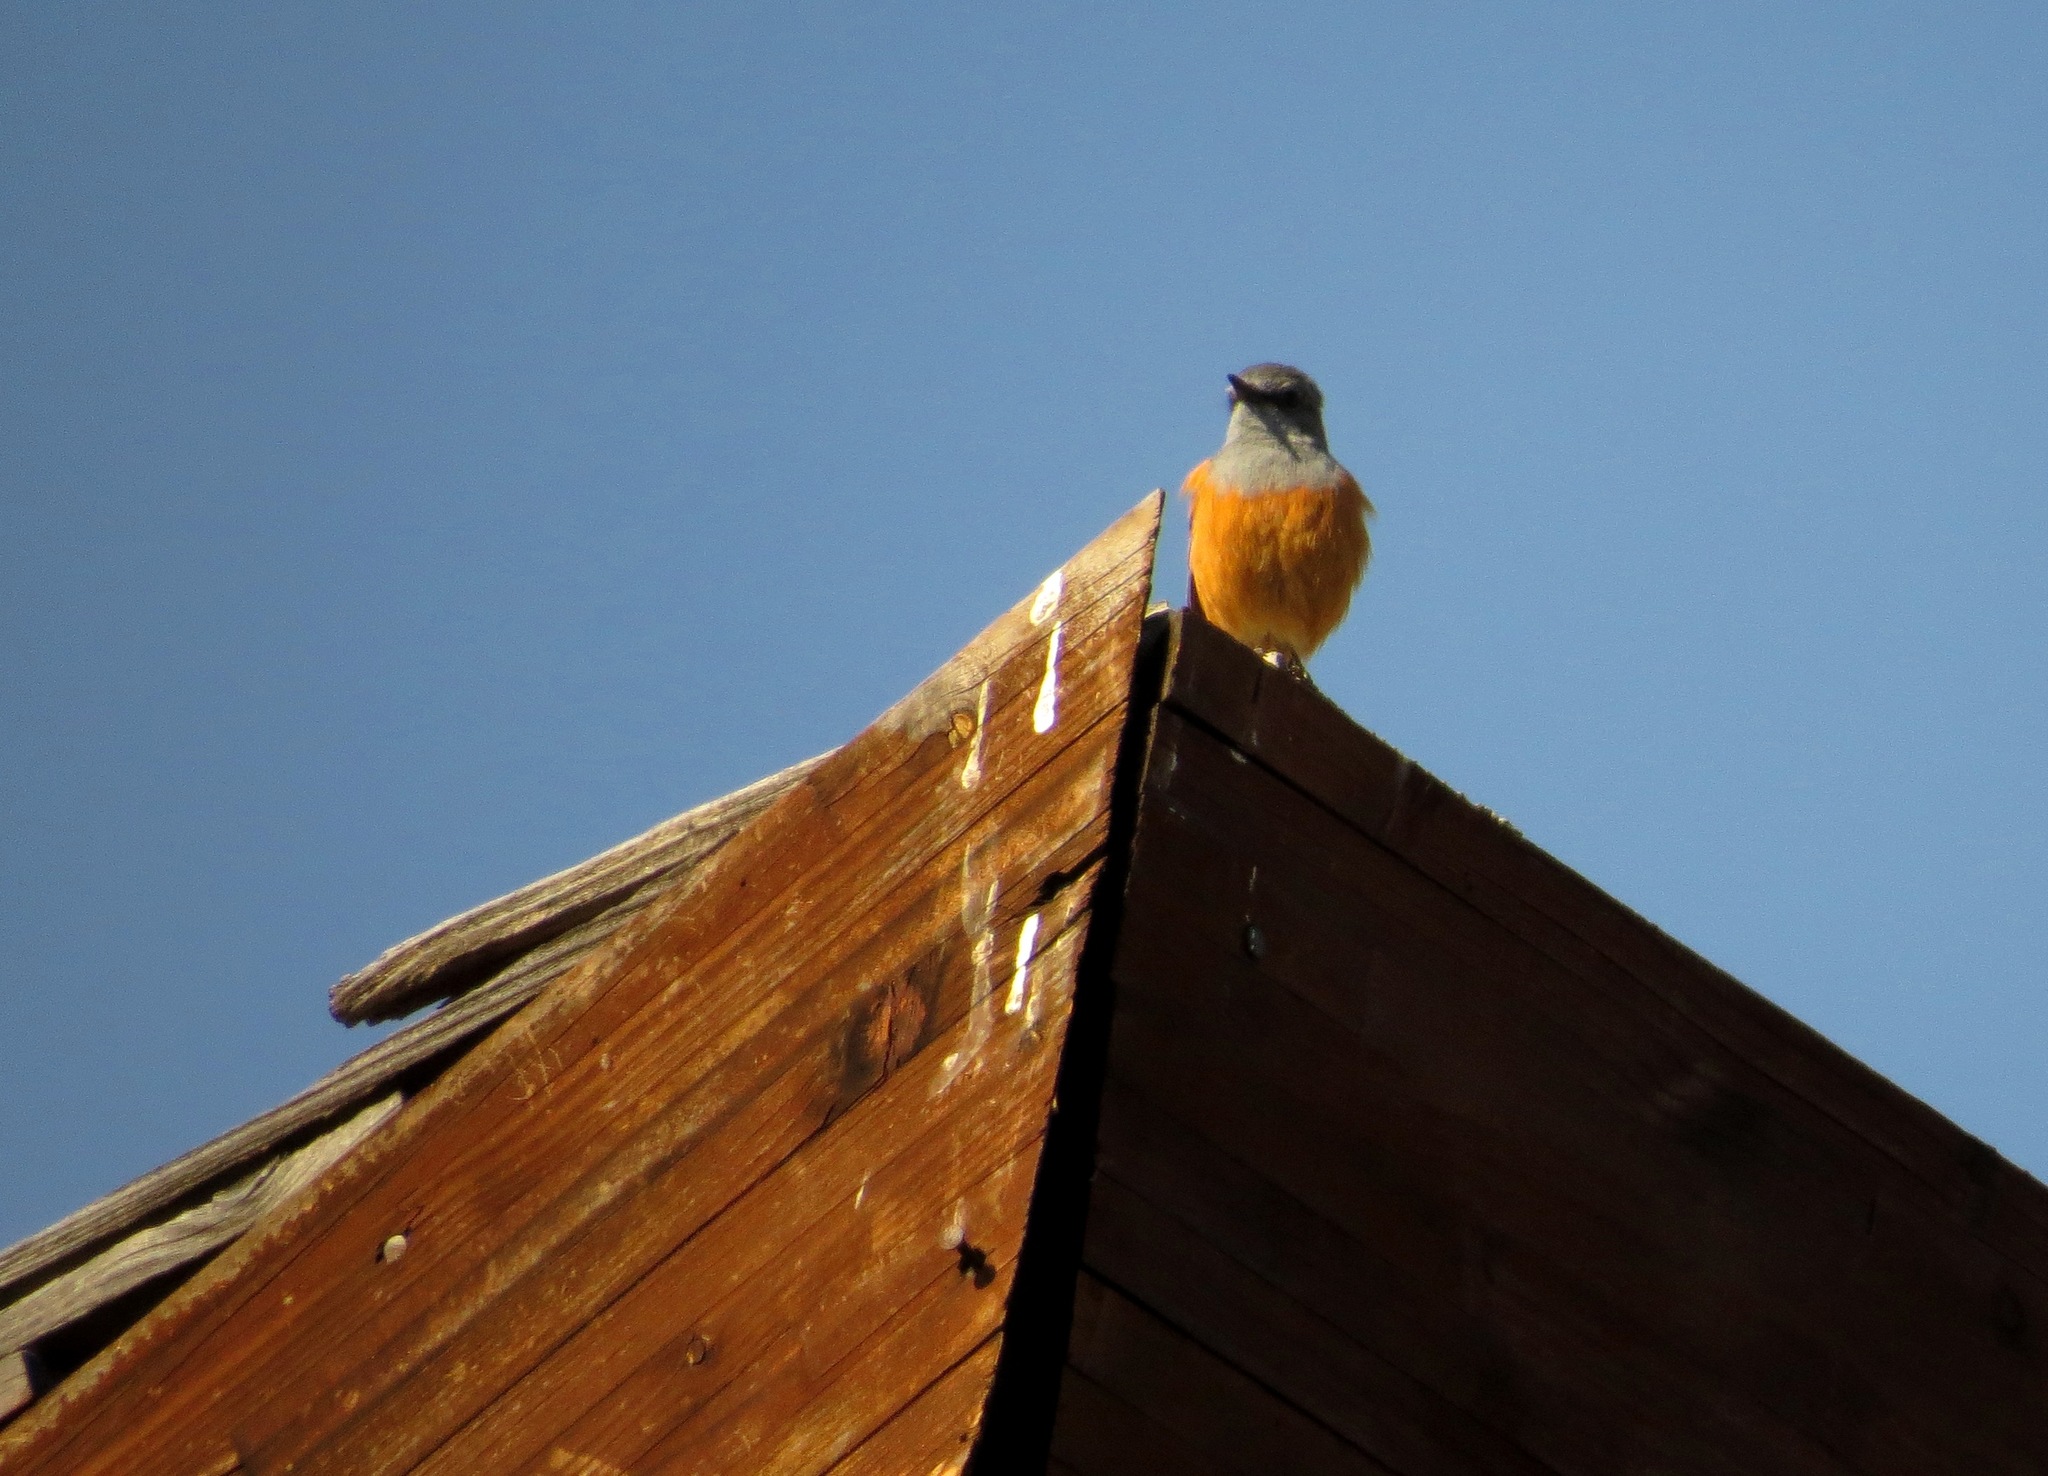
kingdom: Animalia
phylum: Chordata
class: Aves
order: Passeriformes
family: Muscicapidae
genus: Monticola
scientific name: Monticola sharpei
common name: Forest rock-thrush
